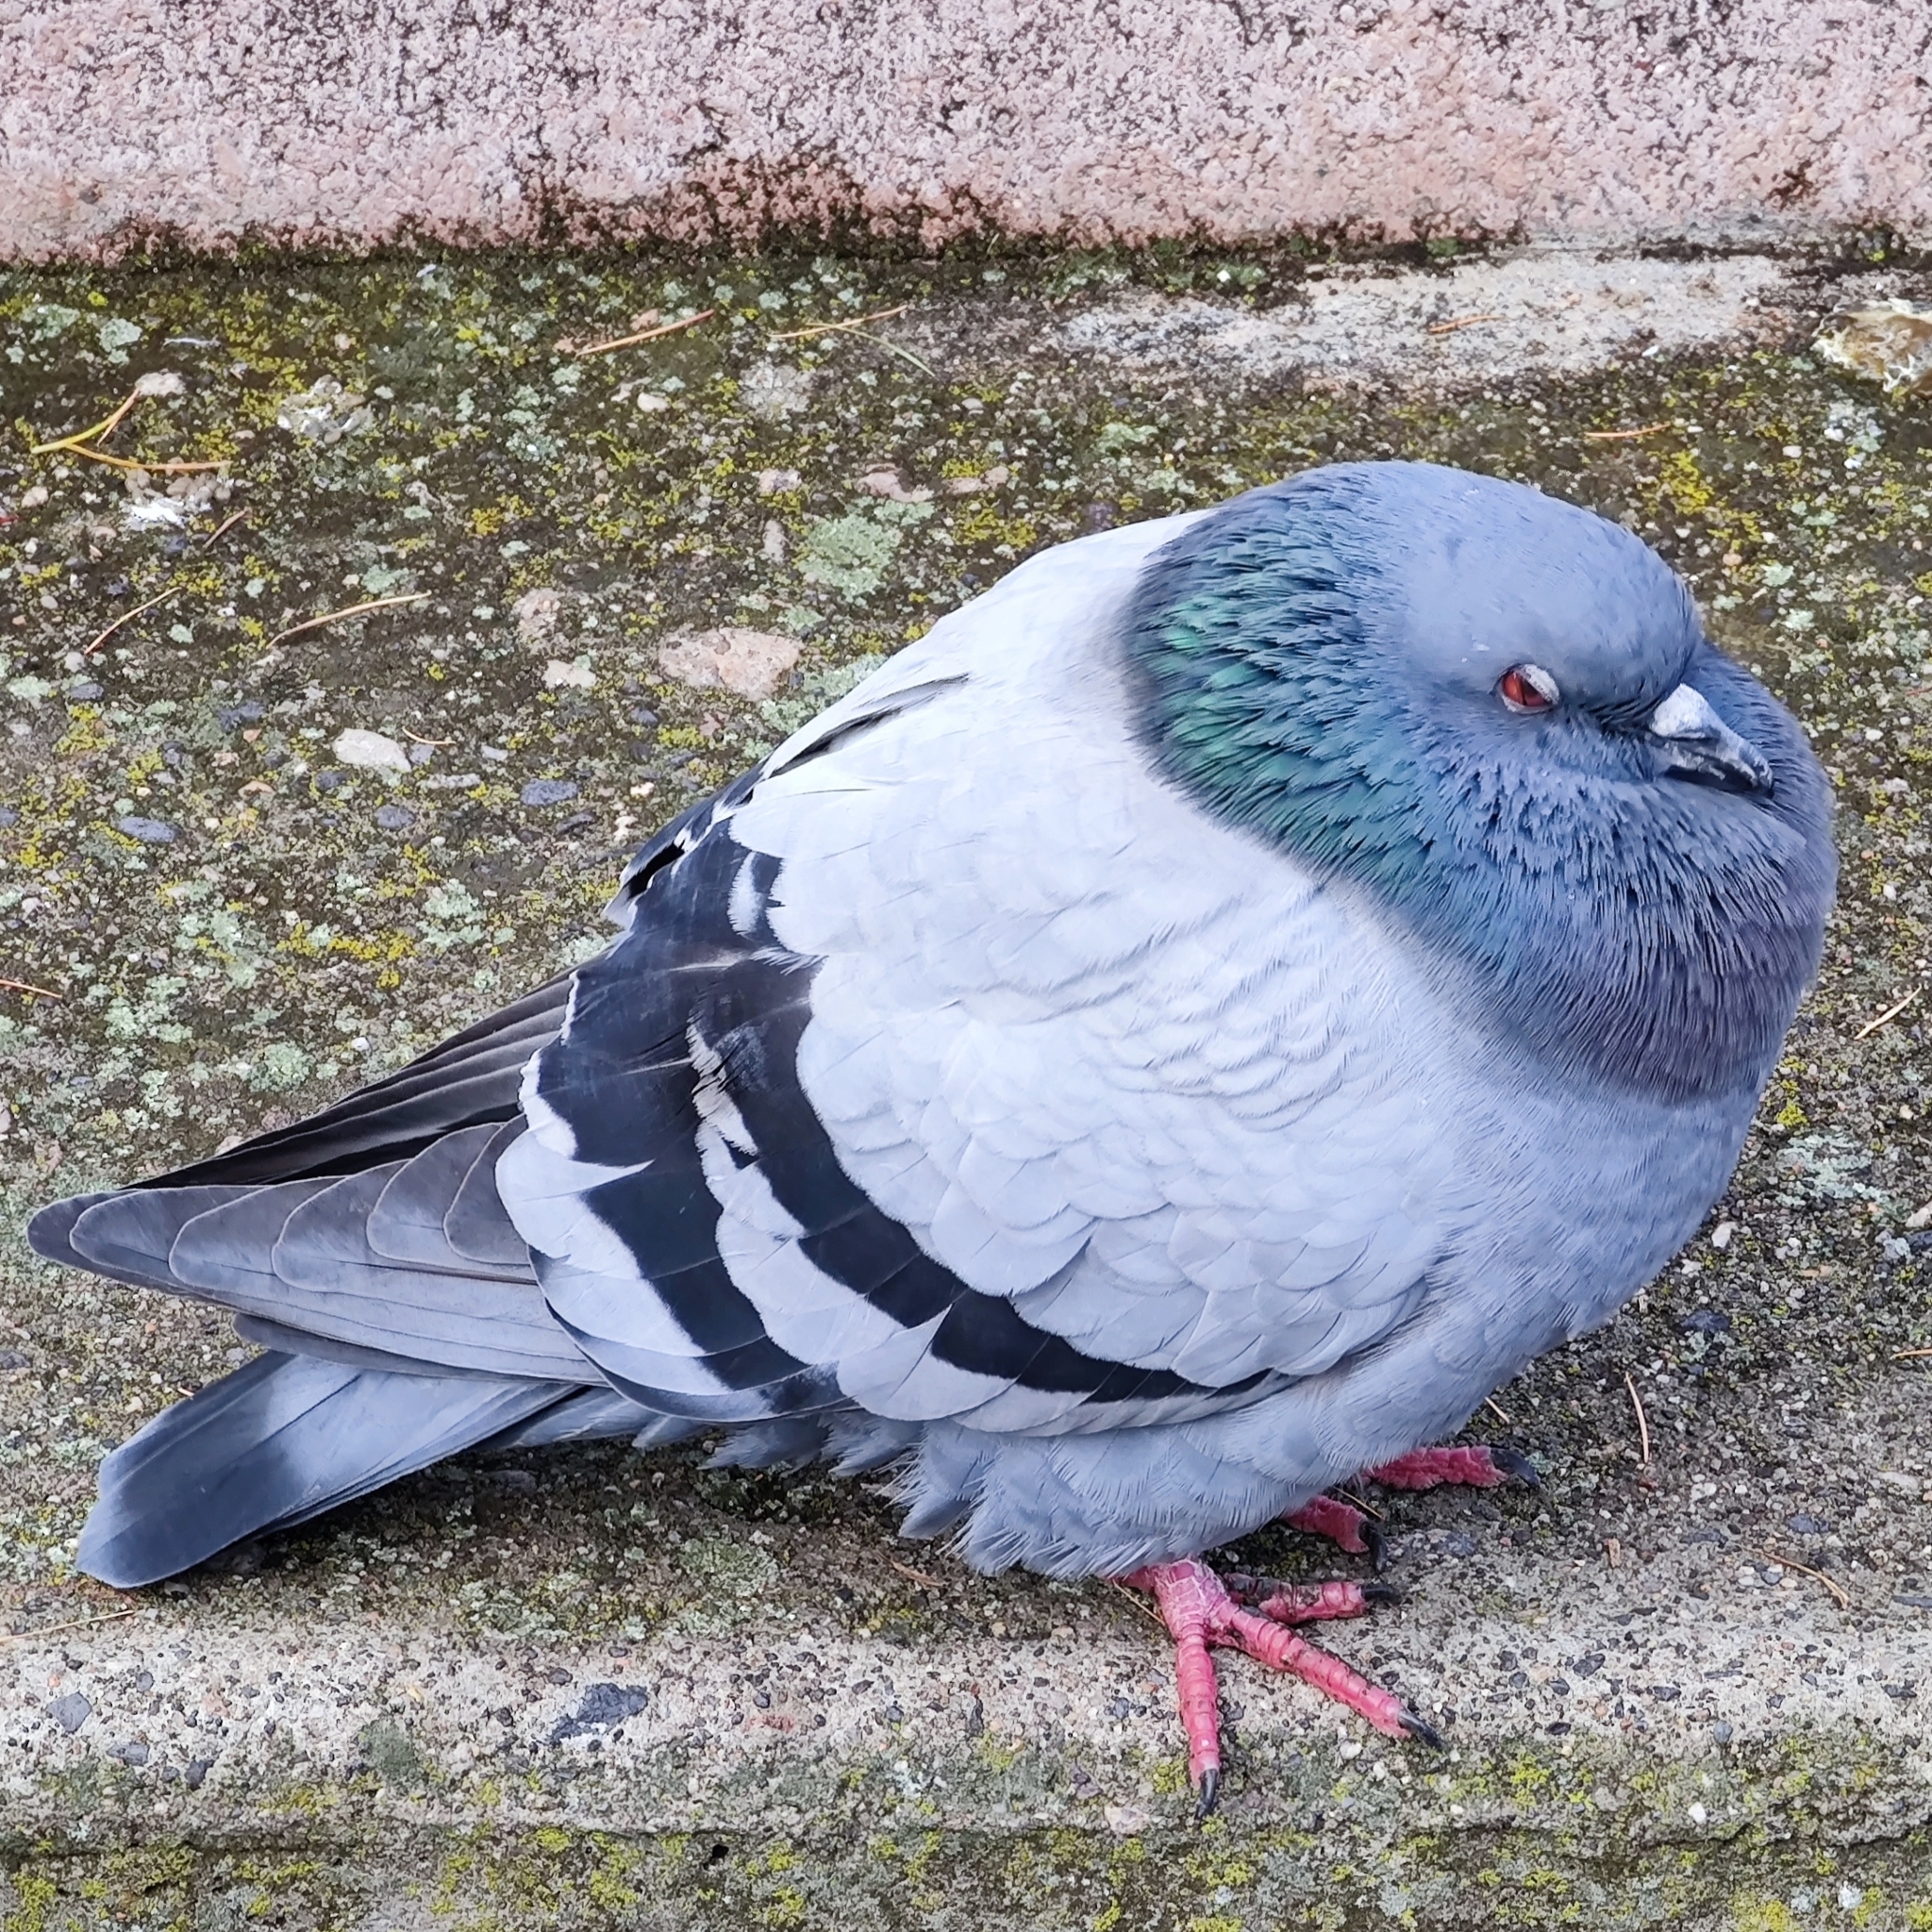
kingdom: Animalia
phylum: Chordata
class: Aves
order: Columbiformes
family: Columbidae
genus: Columba
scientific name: Columba livia
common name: Rock pigeon
